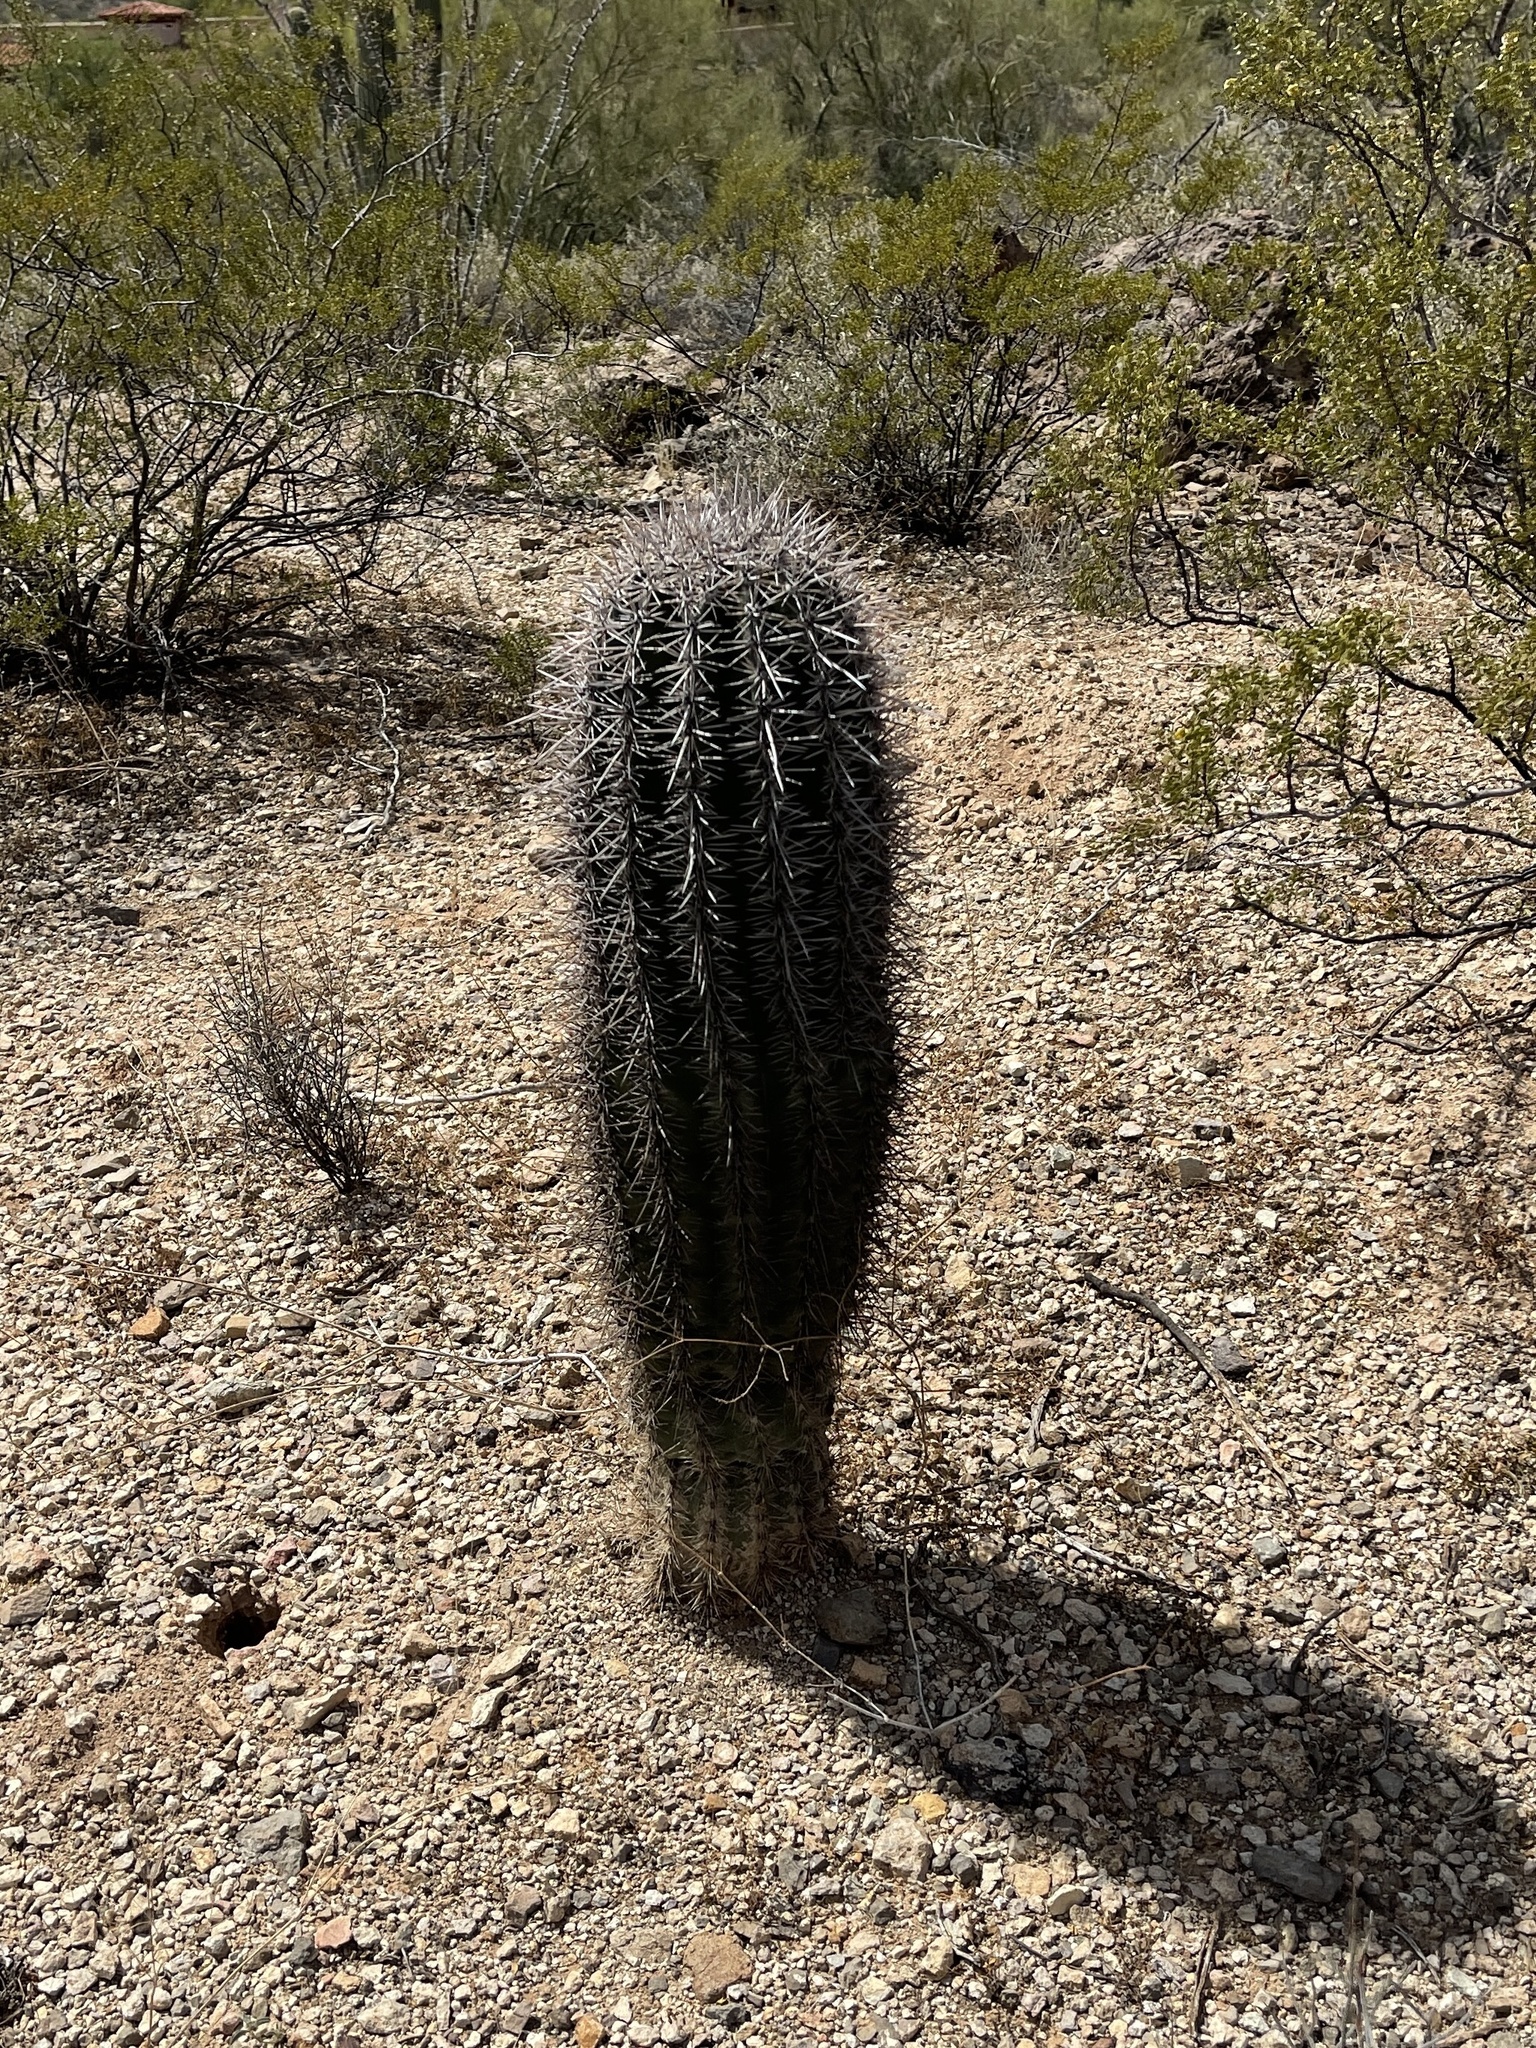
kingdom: Plantae
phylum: Tracheophyta
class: Magnoliopsida
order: Caryophyllales
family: Cactaceae
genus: Carnegiea
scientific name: Carnegiea gigantea
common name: Saguaro
